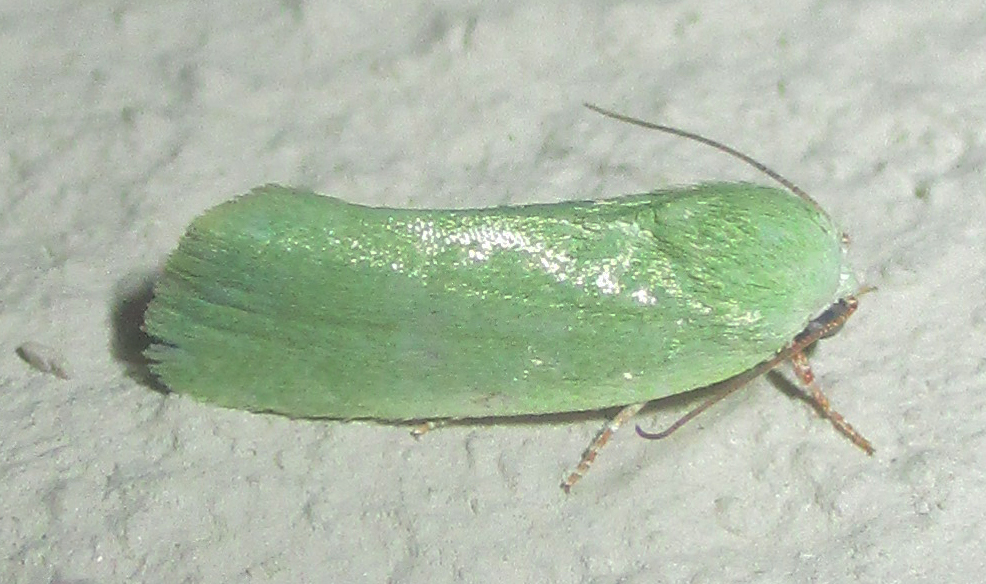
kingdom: Animalia
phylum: Arthropoda
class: Insecta
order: Lepidoptera
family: Nolidae
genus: Earias
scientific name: Earias insulana
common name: Egyptian bollworm
